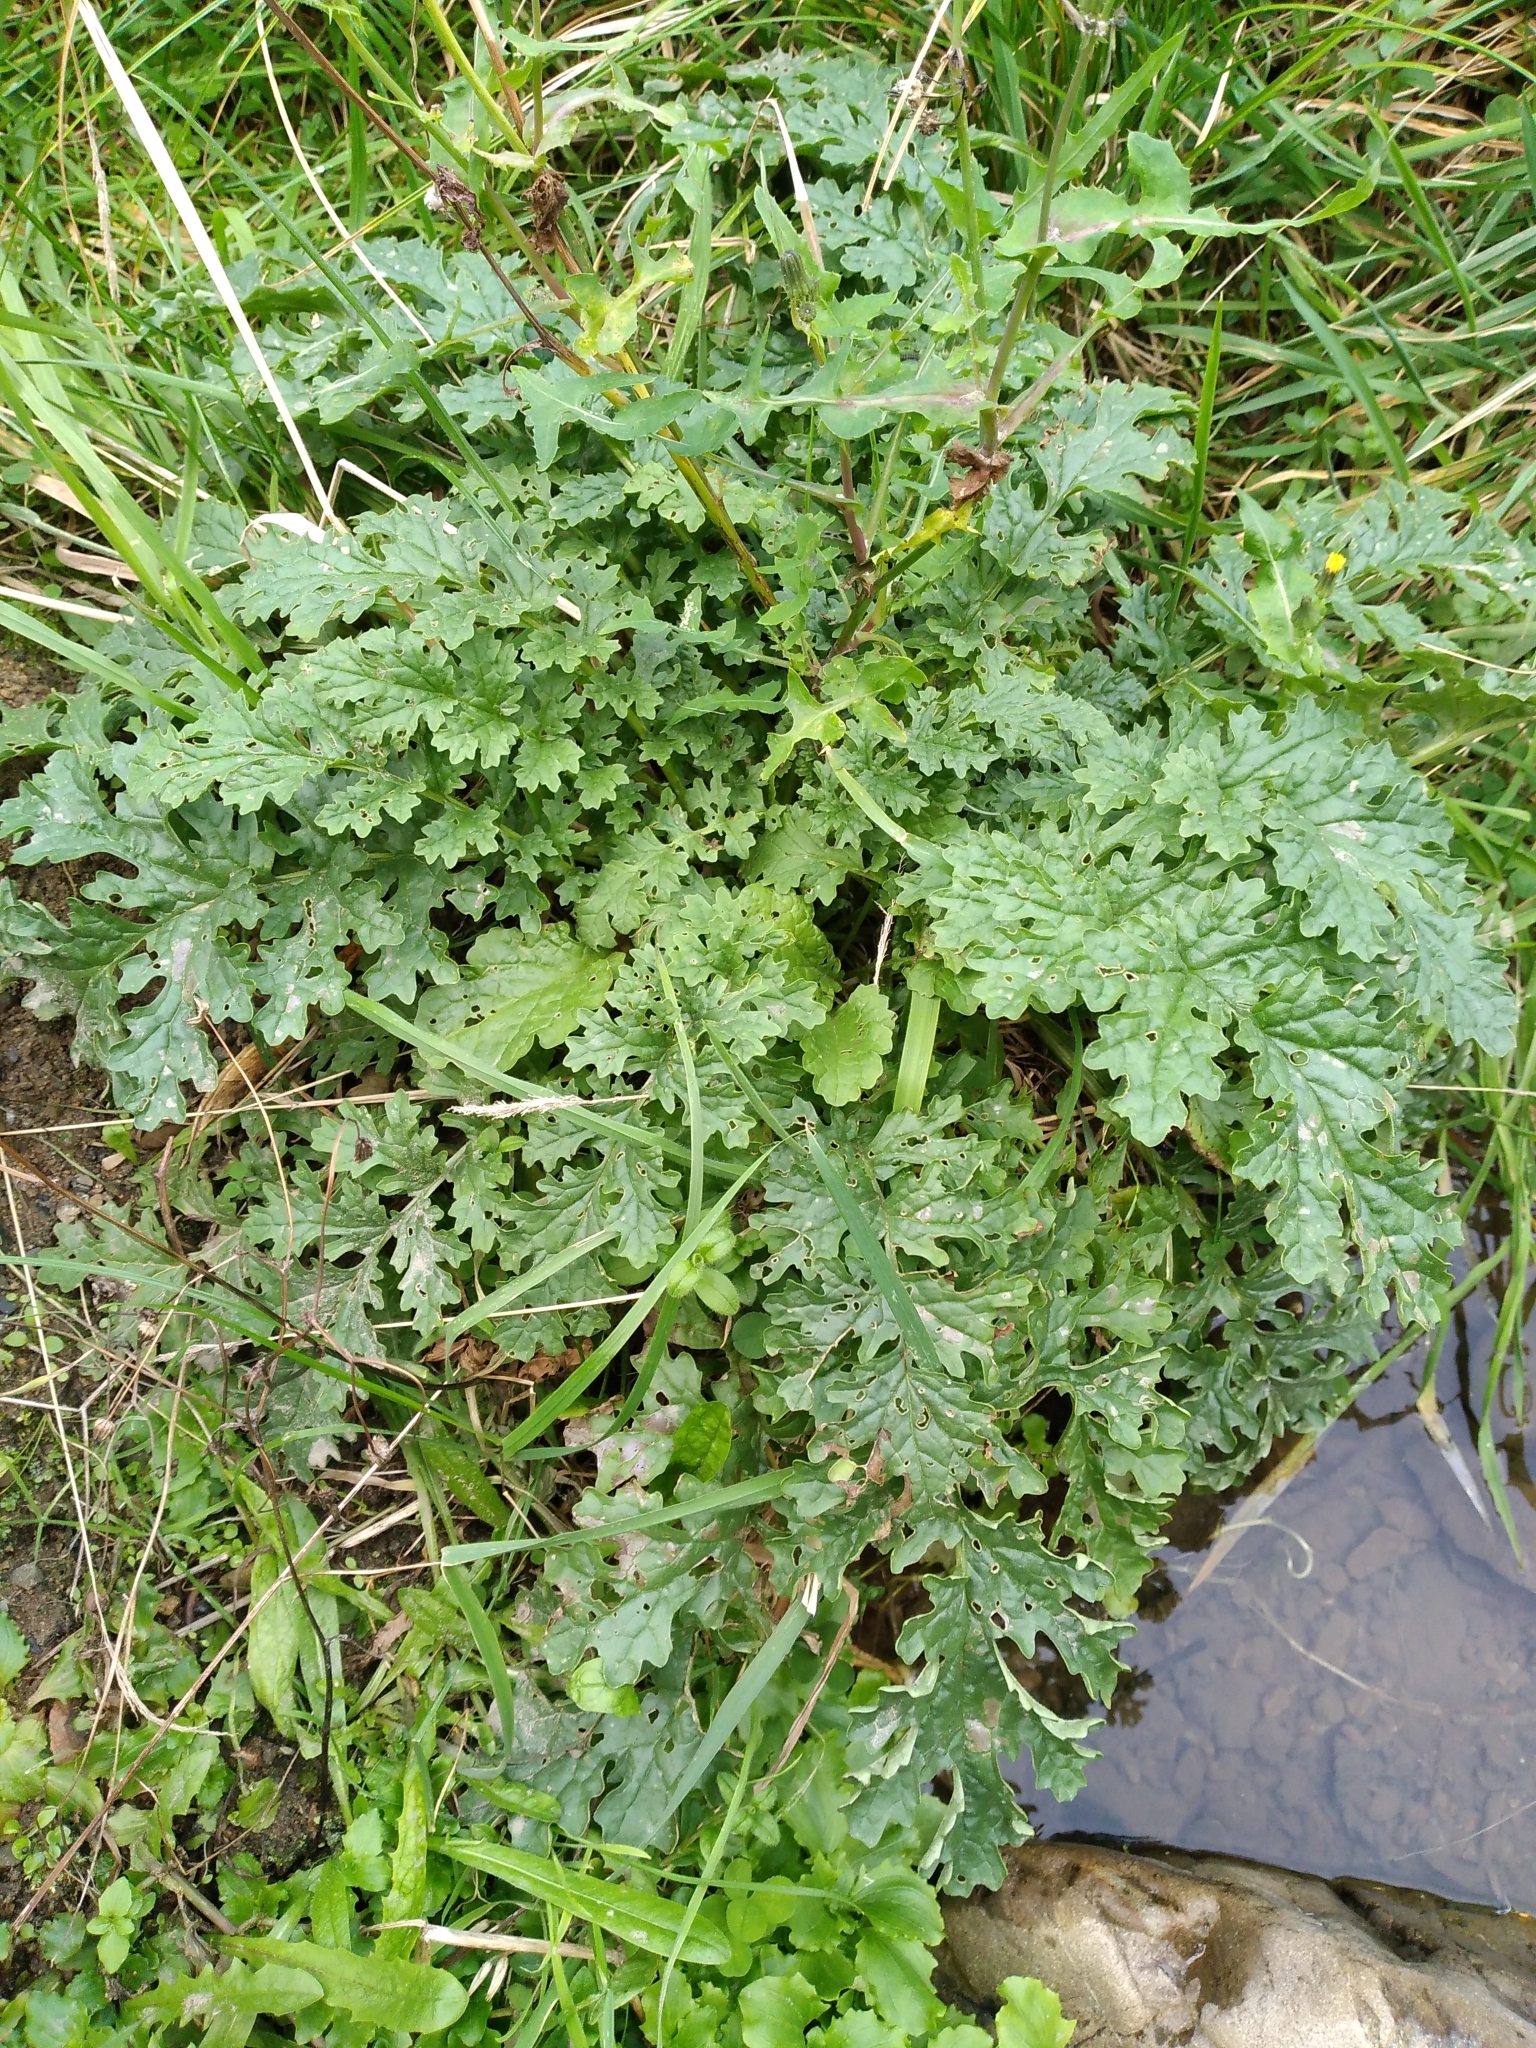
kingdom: Plantae
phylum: Tracheophyta
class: Magnoliopsida
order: Asterales
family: Asteraceae
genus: Jacobaea
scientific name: Jacobaea vulgaris
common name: Stinking willie
